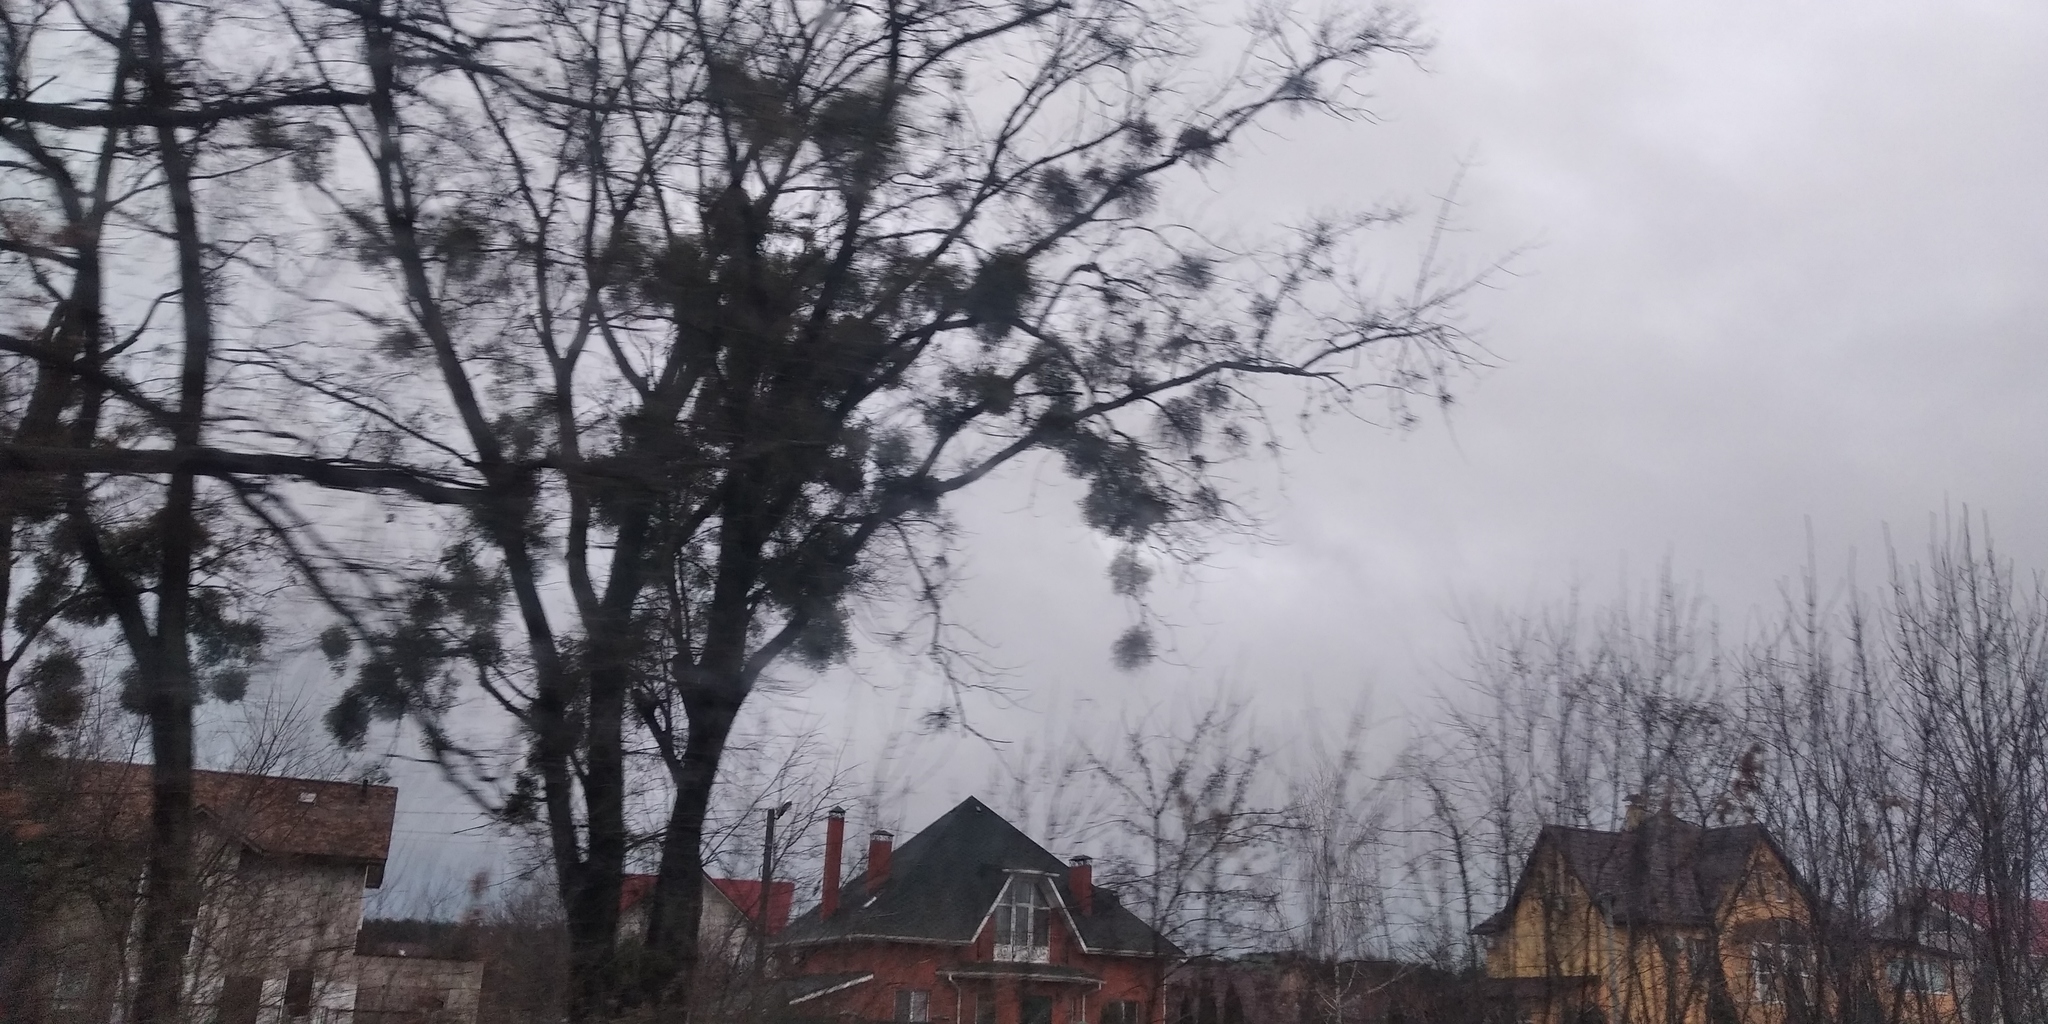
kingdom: Plantae
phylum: Tracheophyta
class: Magnoliopsida
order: Santalales
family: Viscaceae
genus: Viscum
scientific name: Viscum album
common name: Mistletoe
